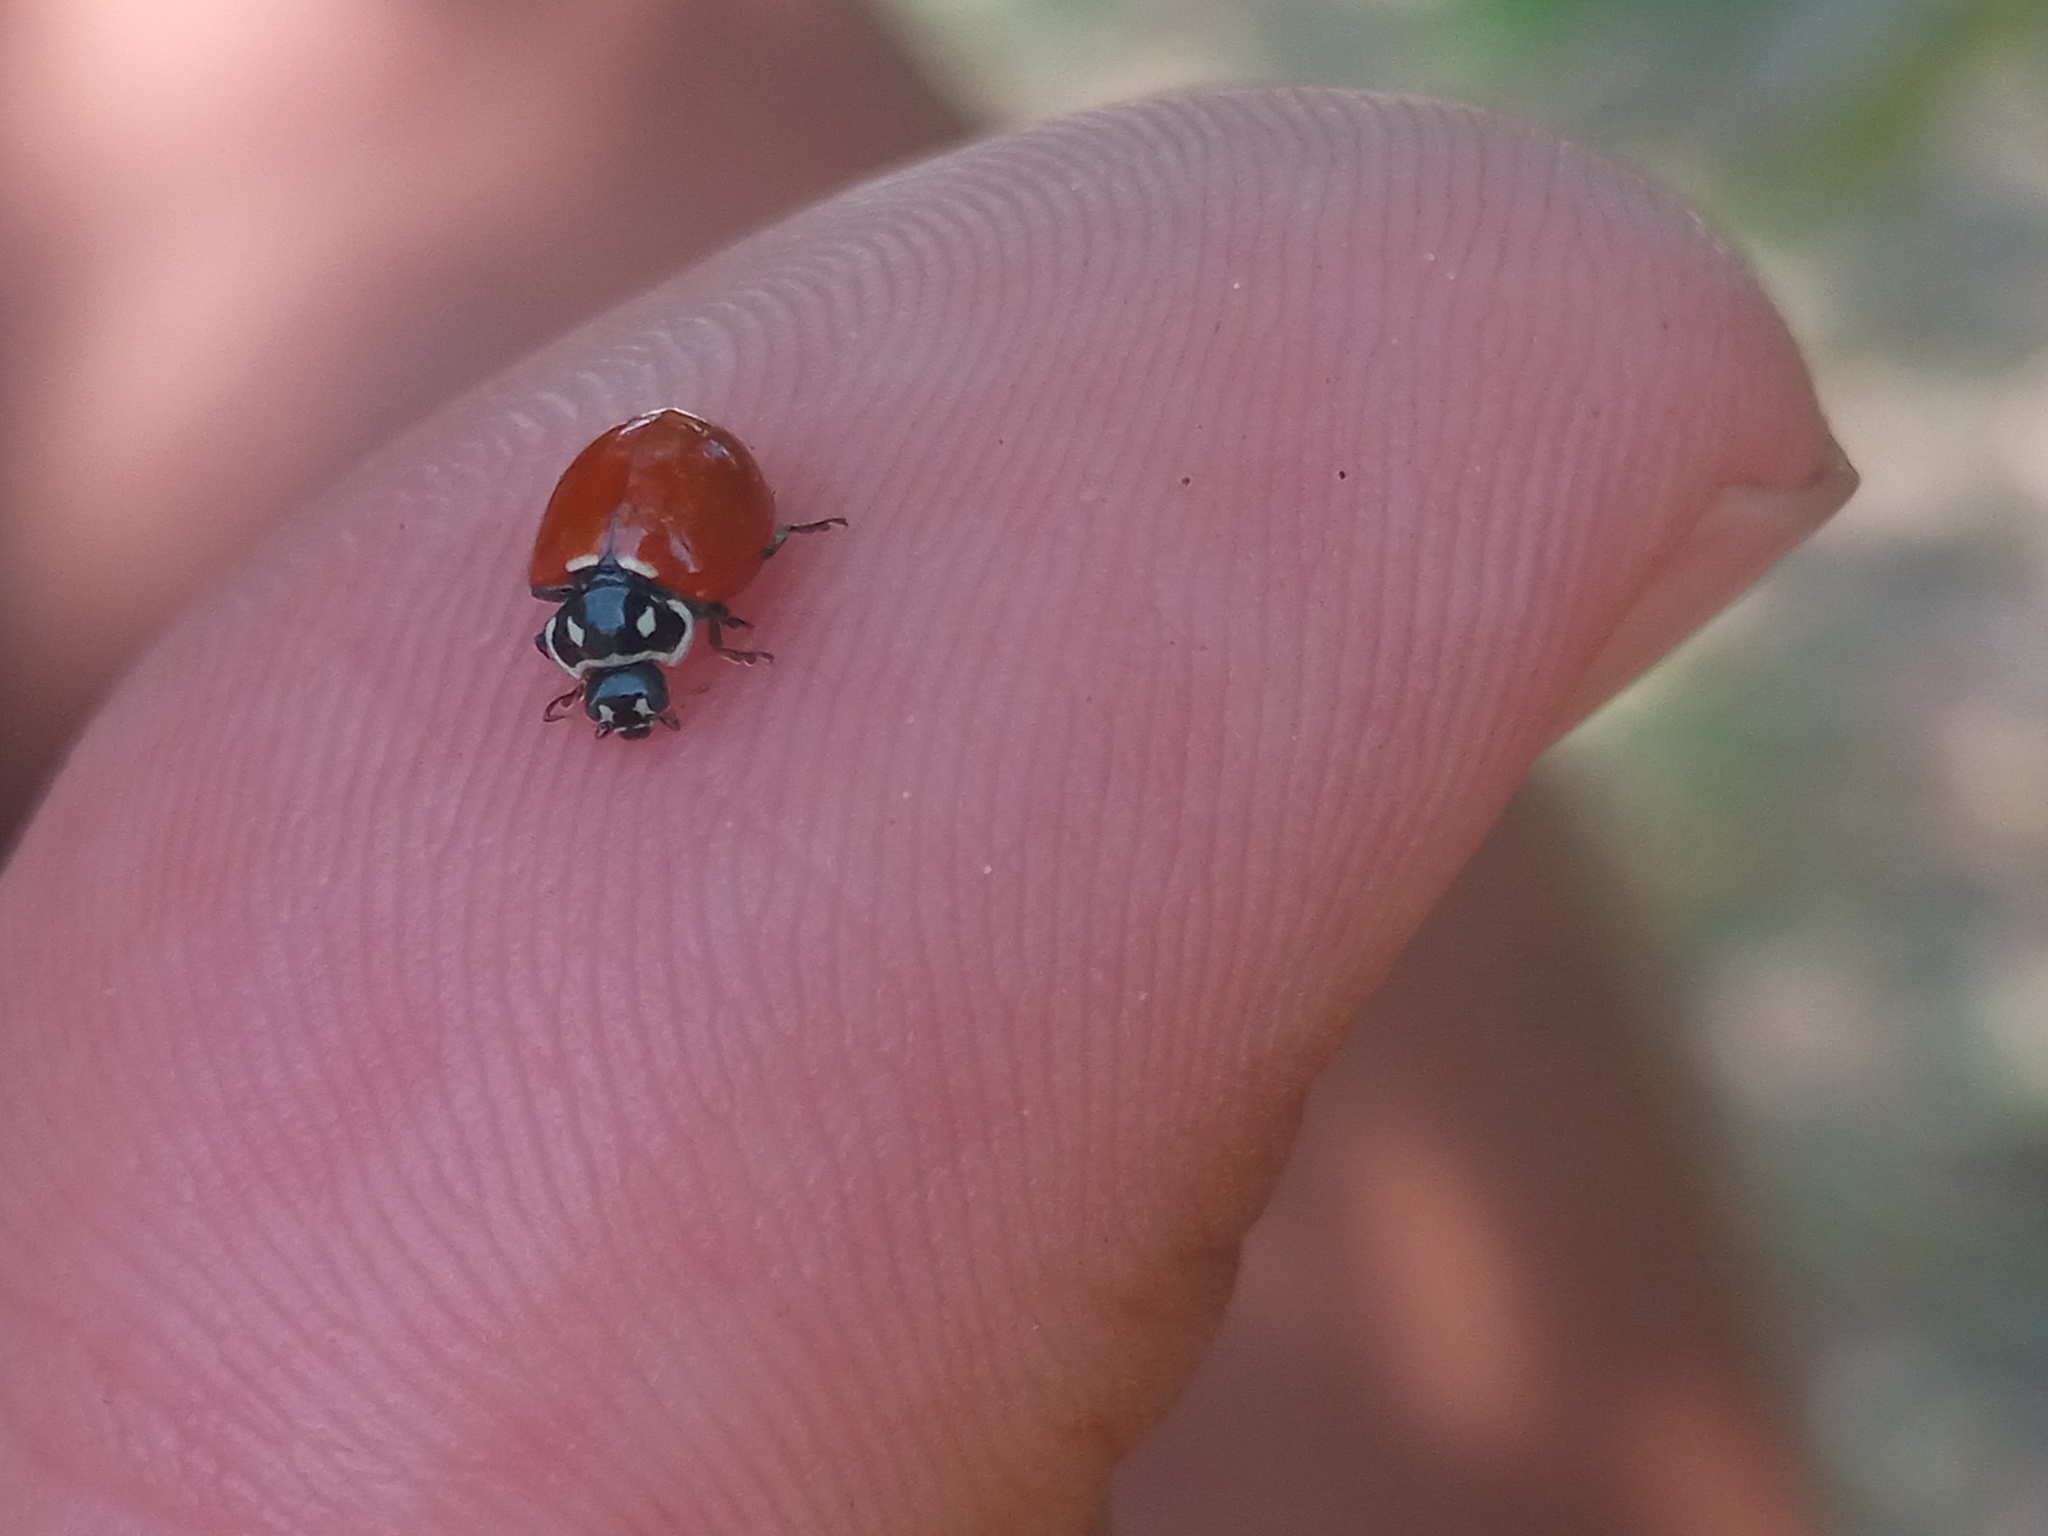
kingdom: Animalia
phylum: Arthropoda
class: Insecta
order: Coleoptera
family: Coccinellidae
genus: Cycloneda
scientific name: Cycloneda emarginata
